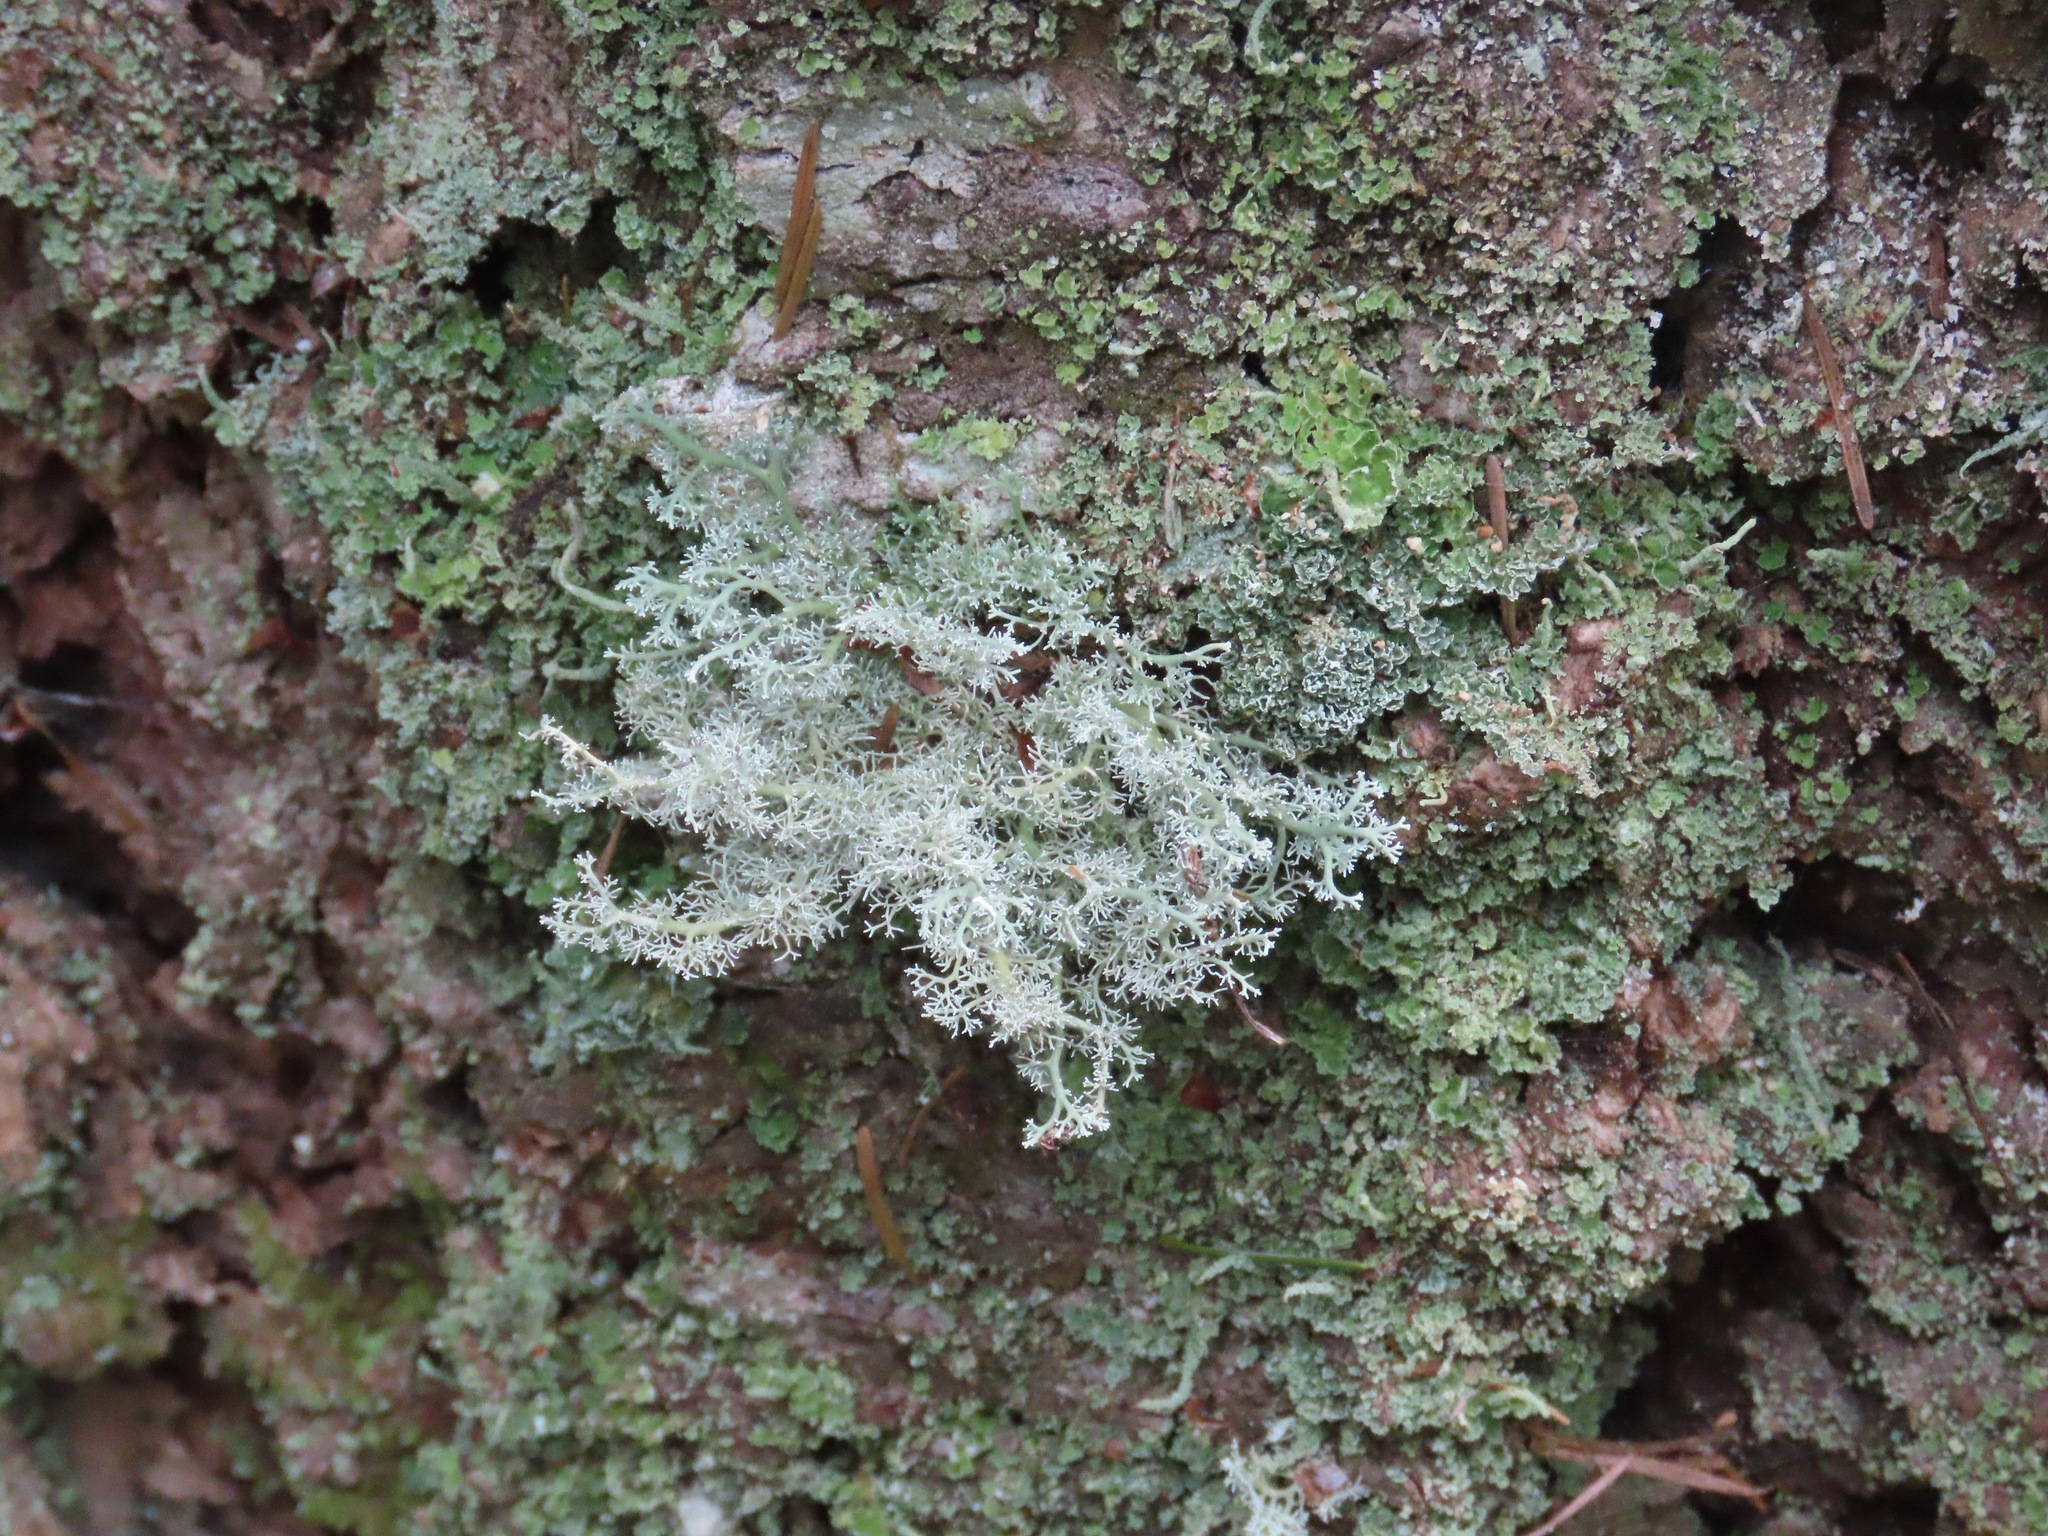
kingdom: Fungi
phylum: Ascomycota
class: Lecanoromycetes
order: Lecanorales
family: Sphaerophoraceae
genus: Sphaerophorus
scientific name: Sphaerophorus globosus
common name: Globe ball lichen
